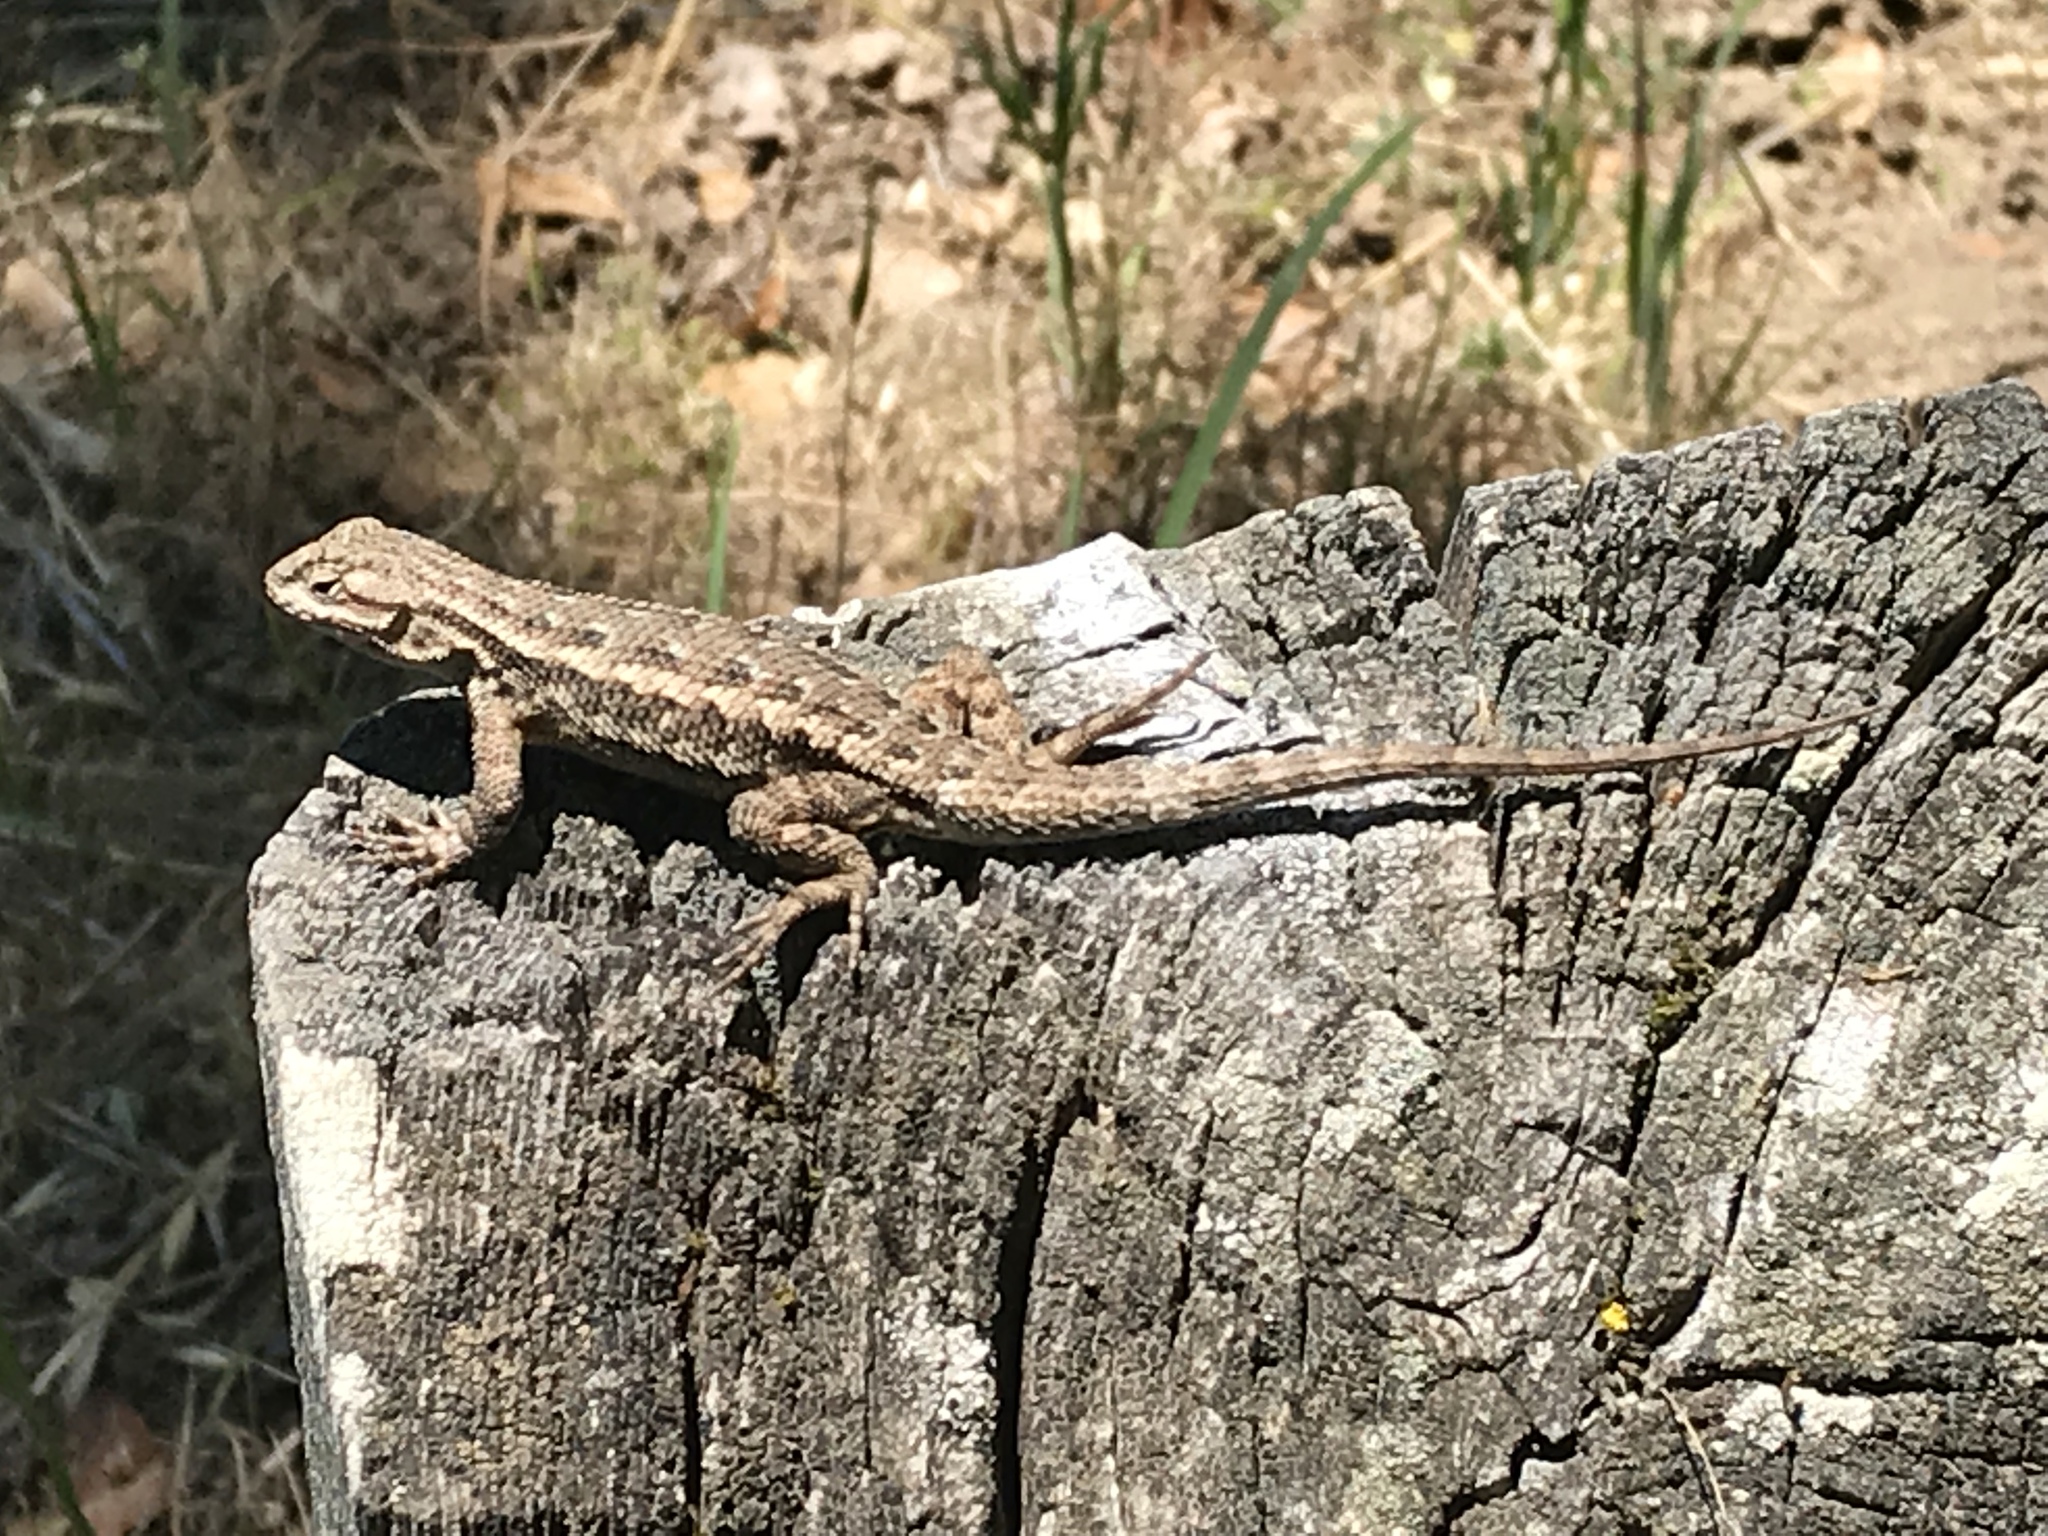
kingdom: Animalia
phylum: Chordata
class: Squamata
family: Phrynosomatidae
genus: Sceloporus
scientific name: Sceloporus occidentalis
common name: Western fence lizard
